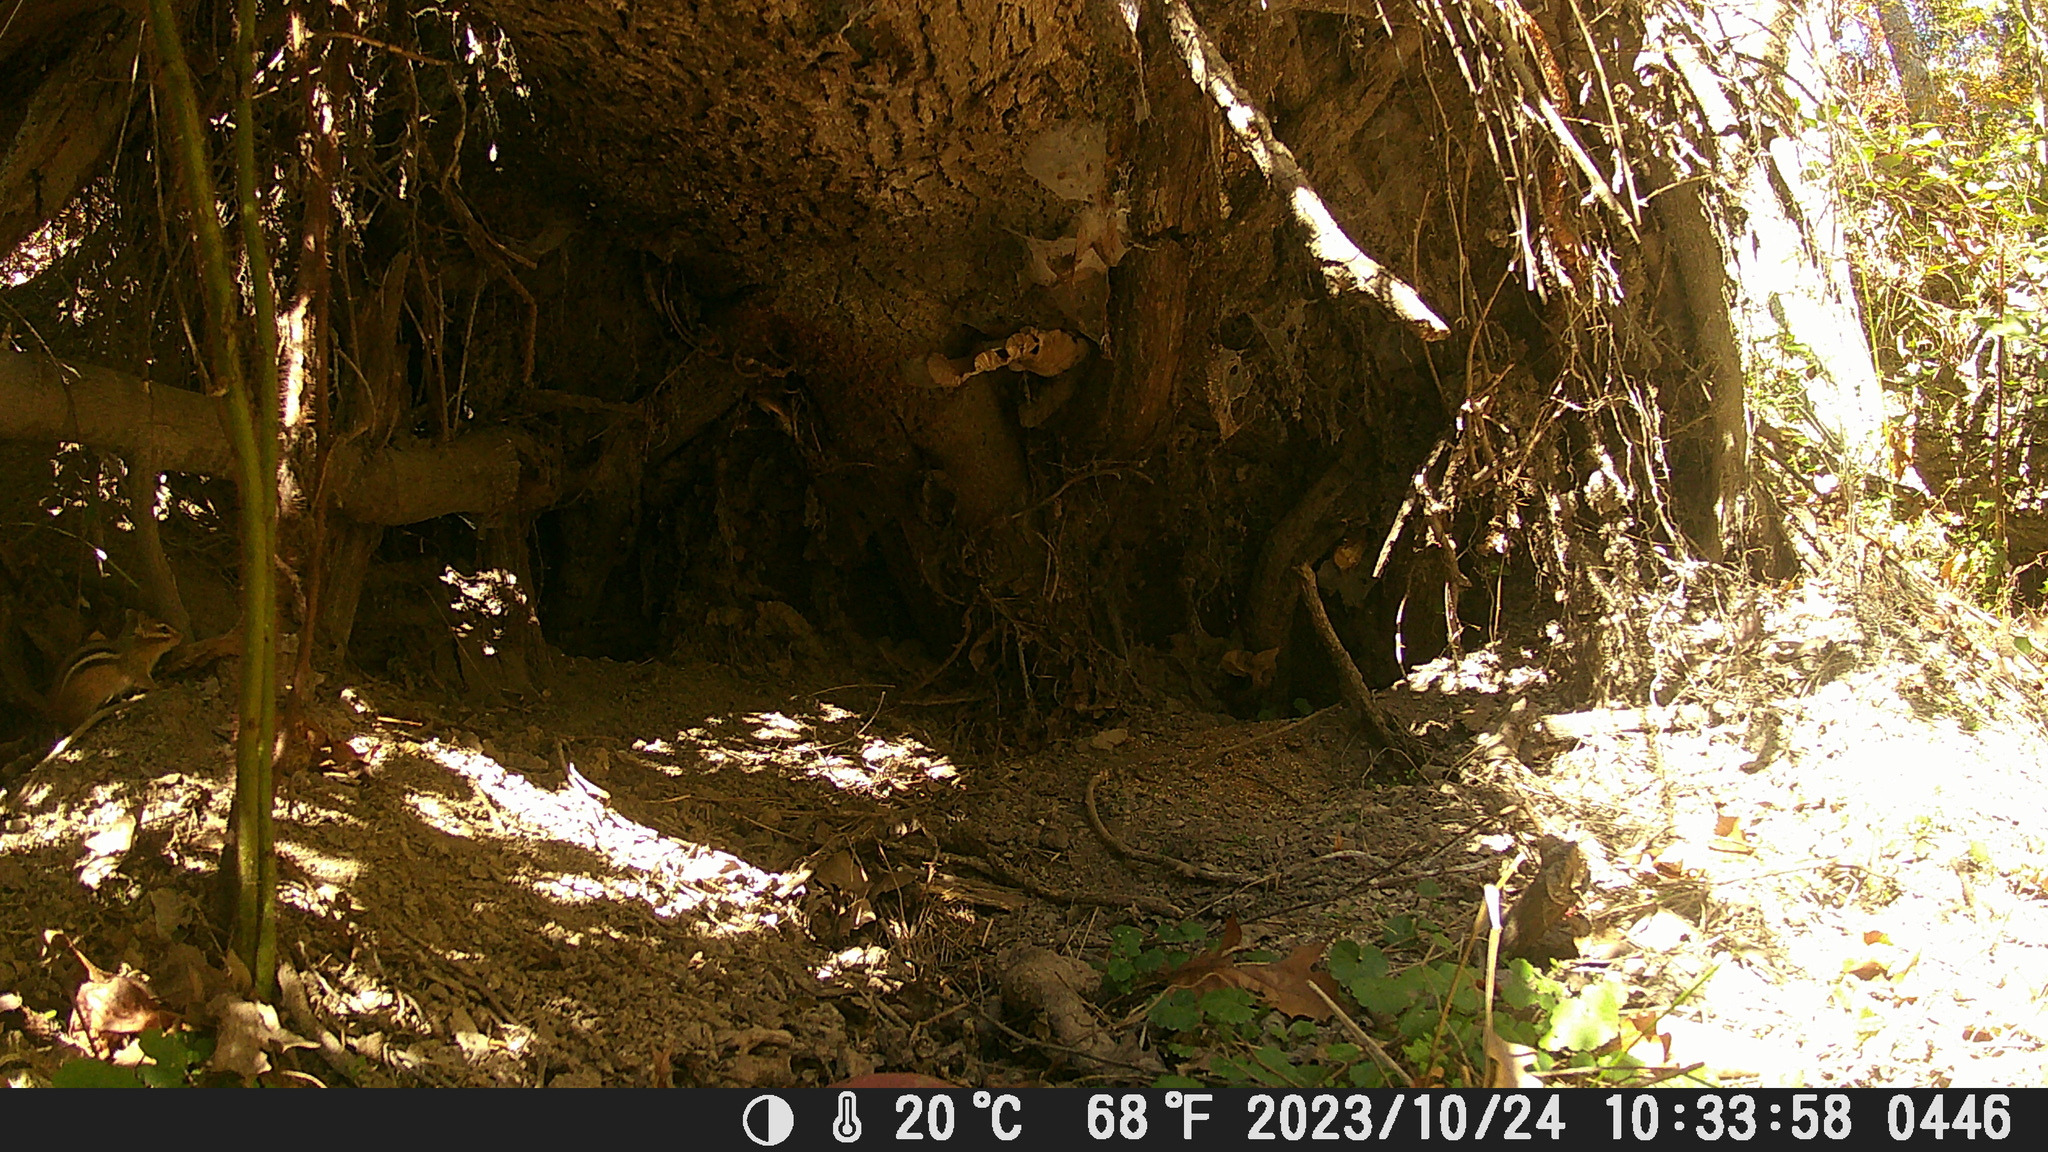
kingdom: Animalia
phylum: Chordata
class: Mammalia
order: Rodentia
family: Sciuridae
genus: Tamias
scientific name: Tamias striatus
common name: Eastern chipmunk
